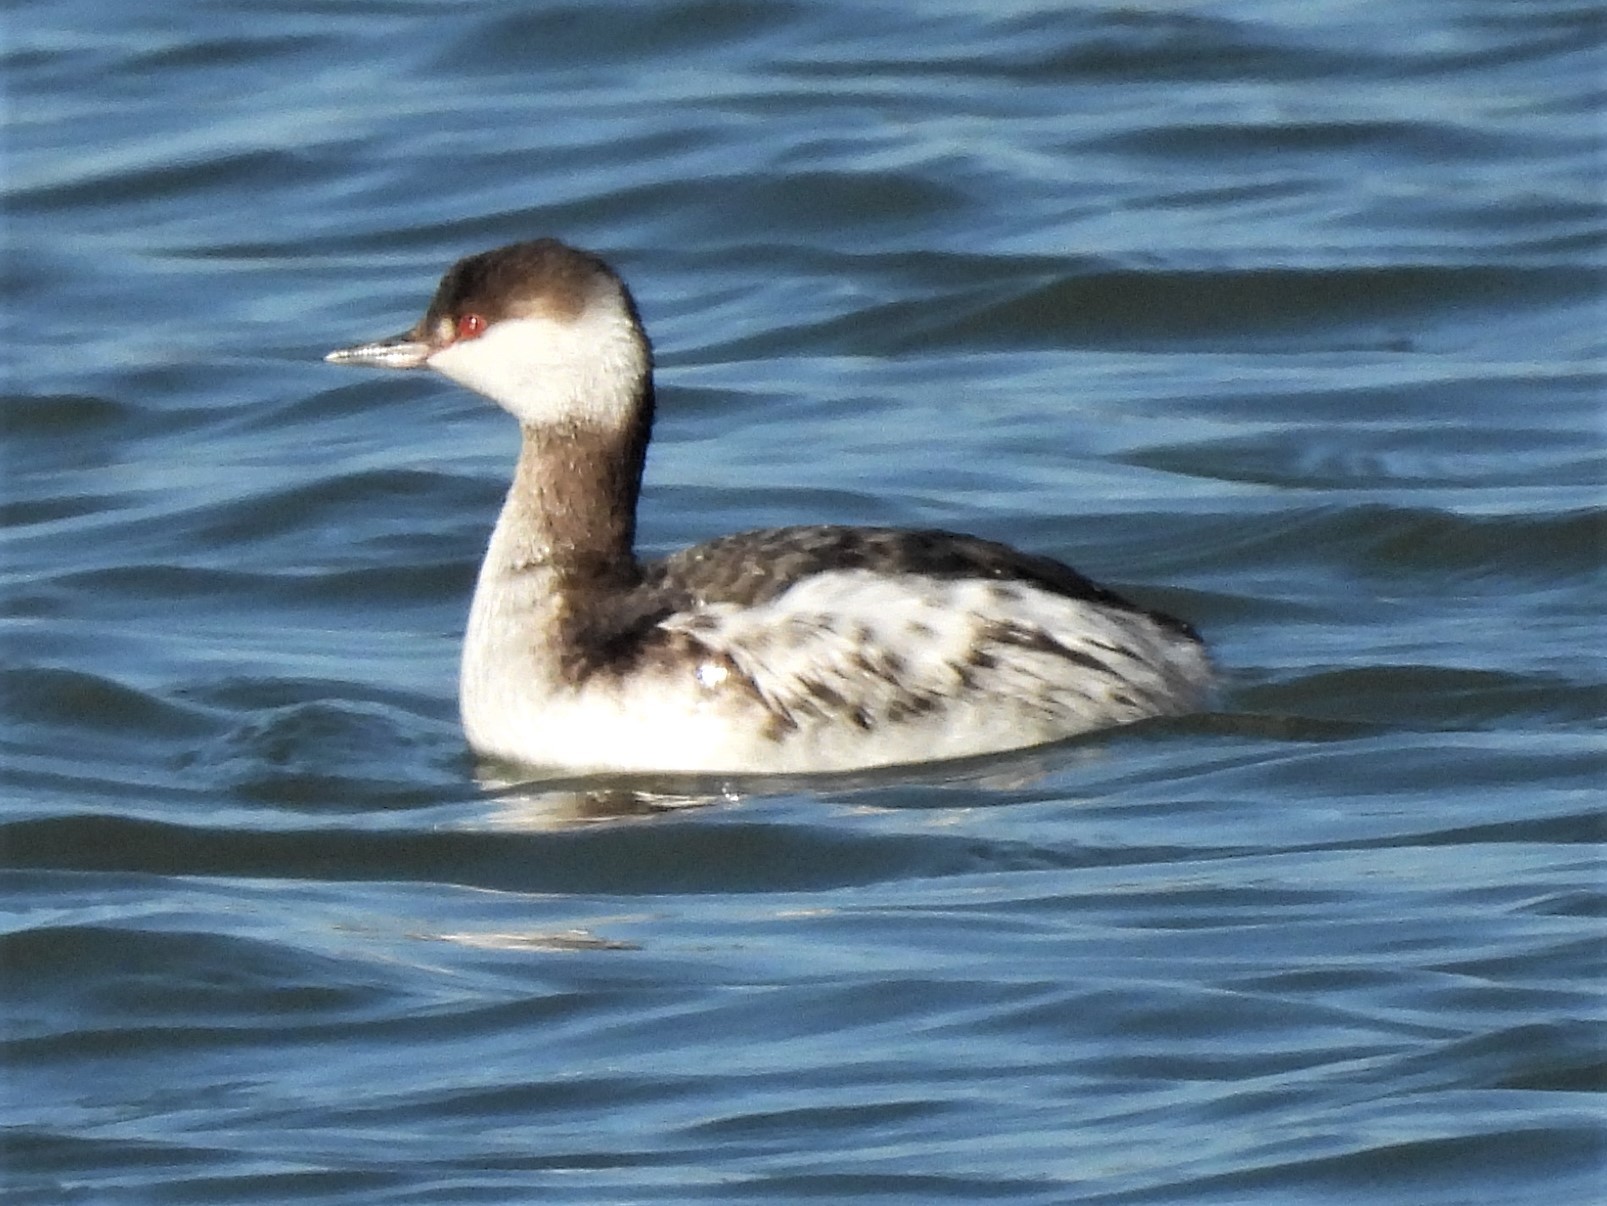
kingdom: Animalia
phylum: Chordata
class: Aves
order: Podicipediformes
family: Podicipedidae
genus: Podiceps
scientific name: Podiceps auritus
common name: Horned grebe
